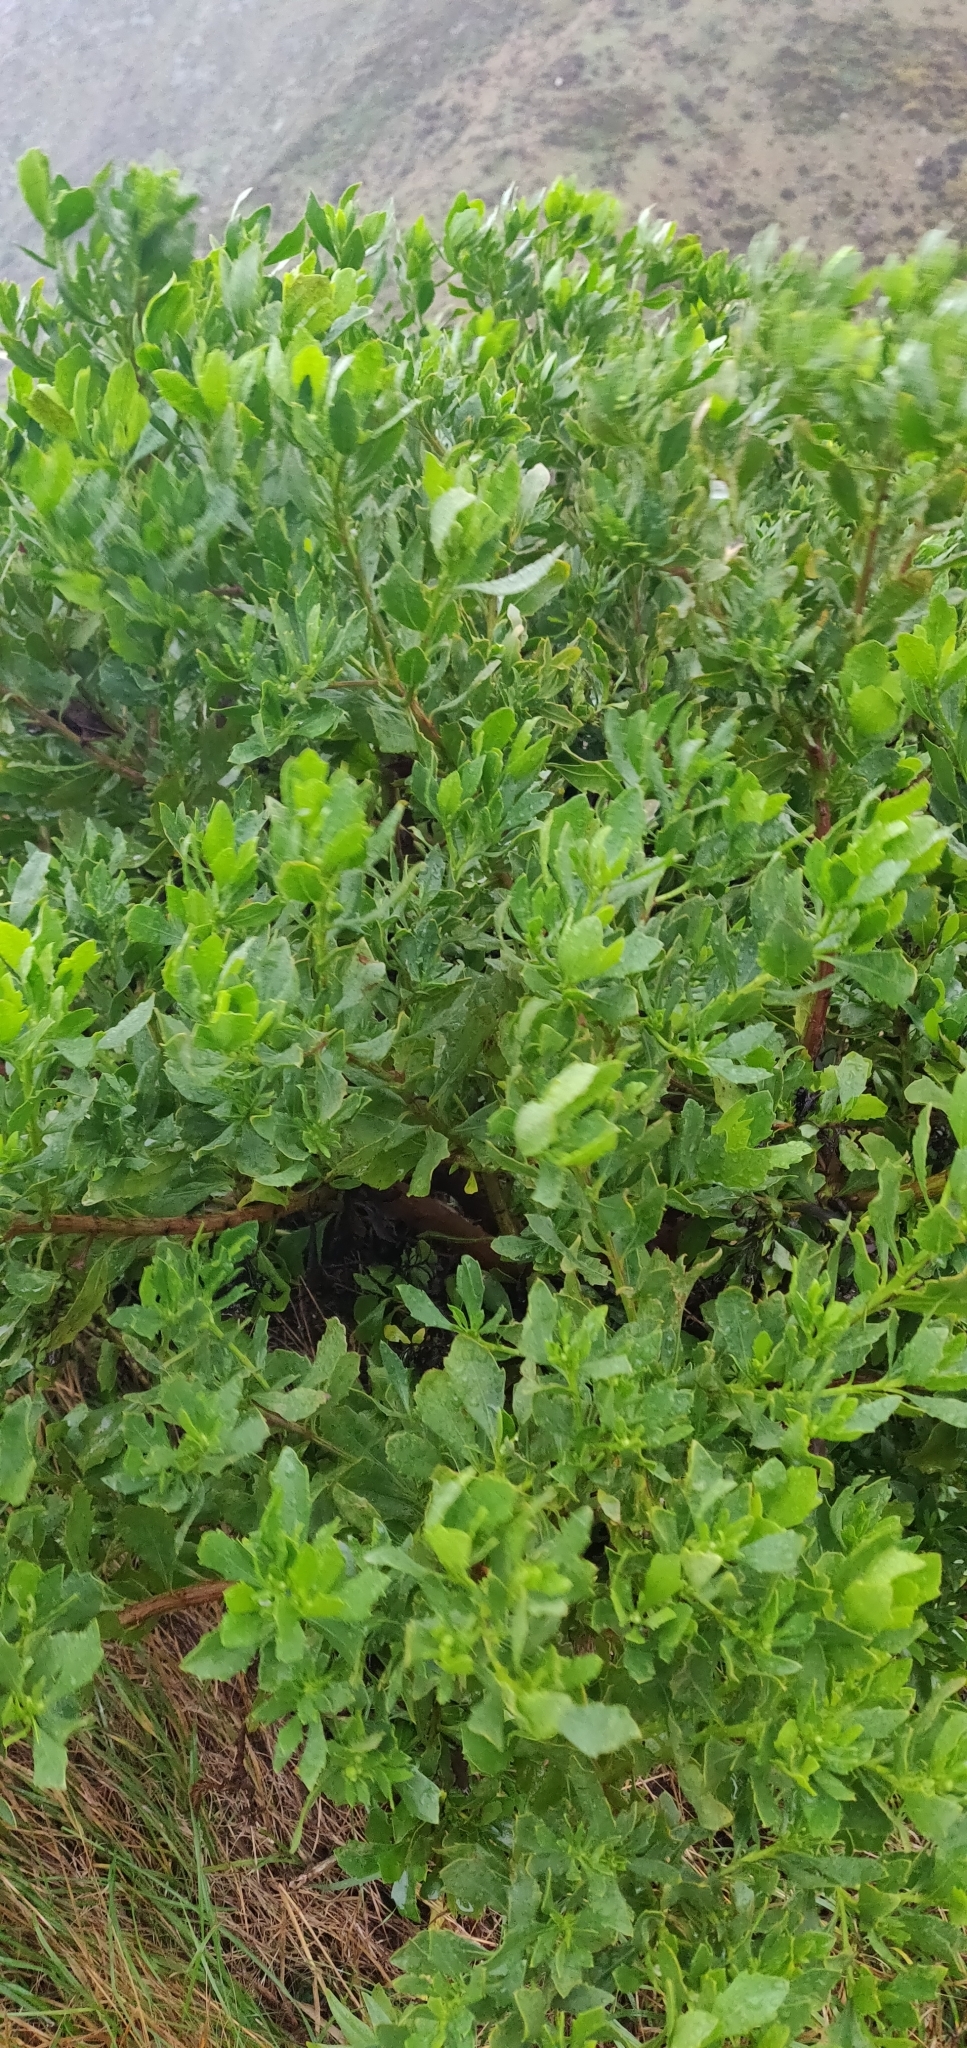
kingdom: Plantae
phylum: Tracheophyta
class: Magnoliopsida
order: Asterales
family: Asteraceae
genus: Osteospermum
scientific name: Osteospermum moniliferum
